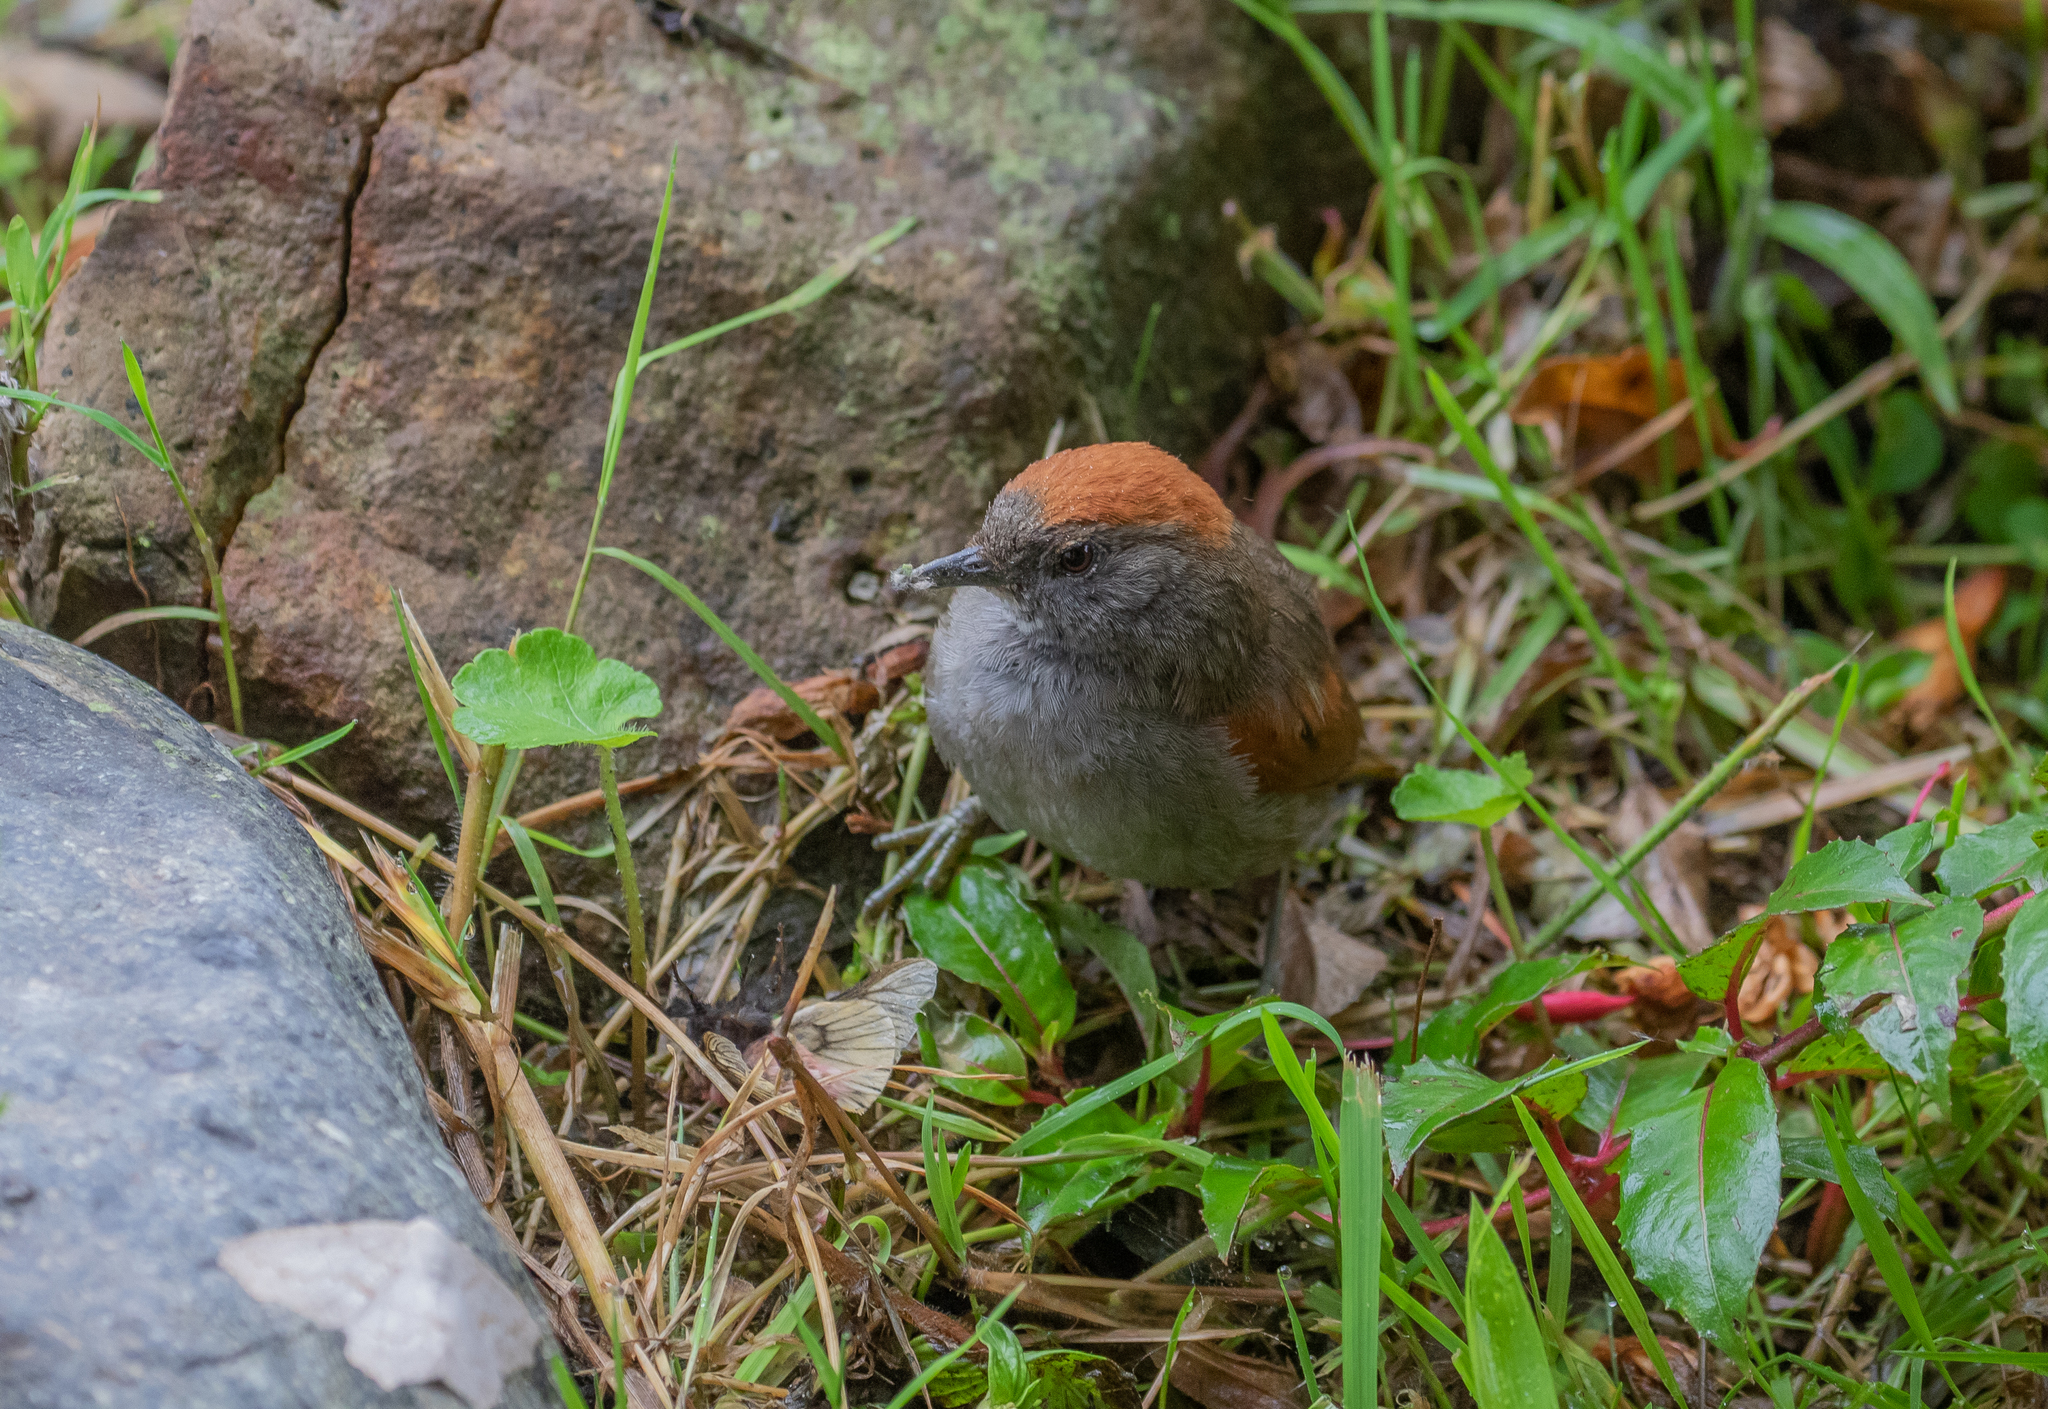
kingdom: Animalia
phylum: Chordata
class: Aves
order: Passeriformes
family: Furnariidae
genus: Synallaxis
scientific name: Synallaxis azarae
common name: Azara's spinetail
